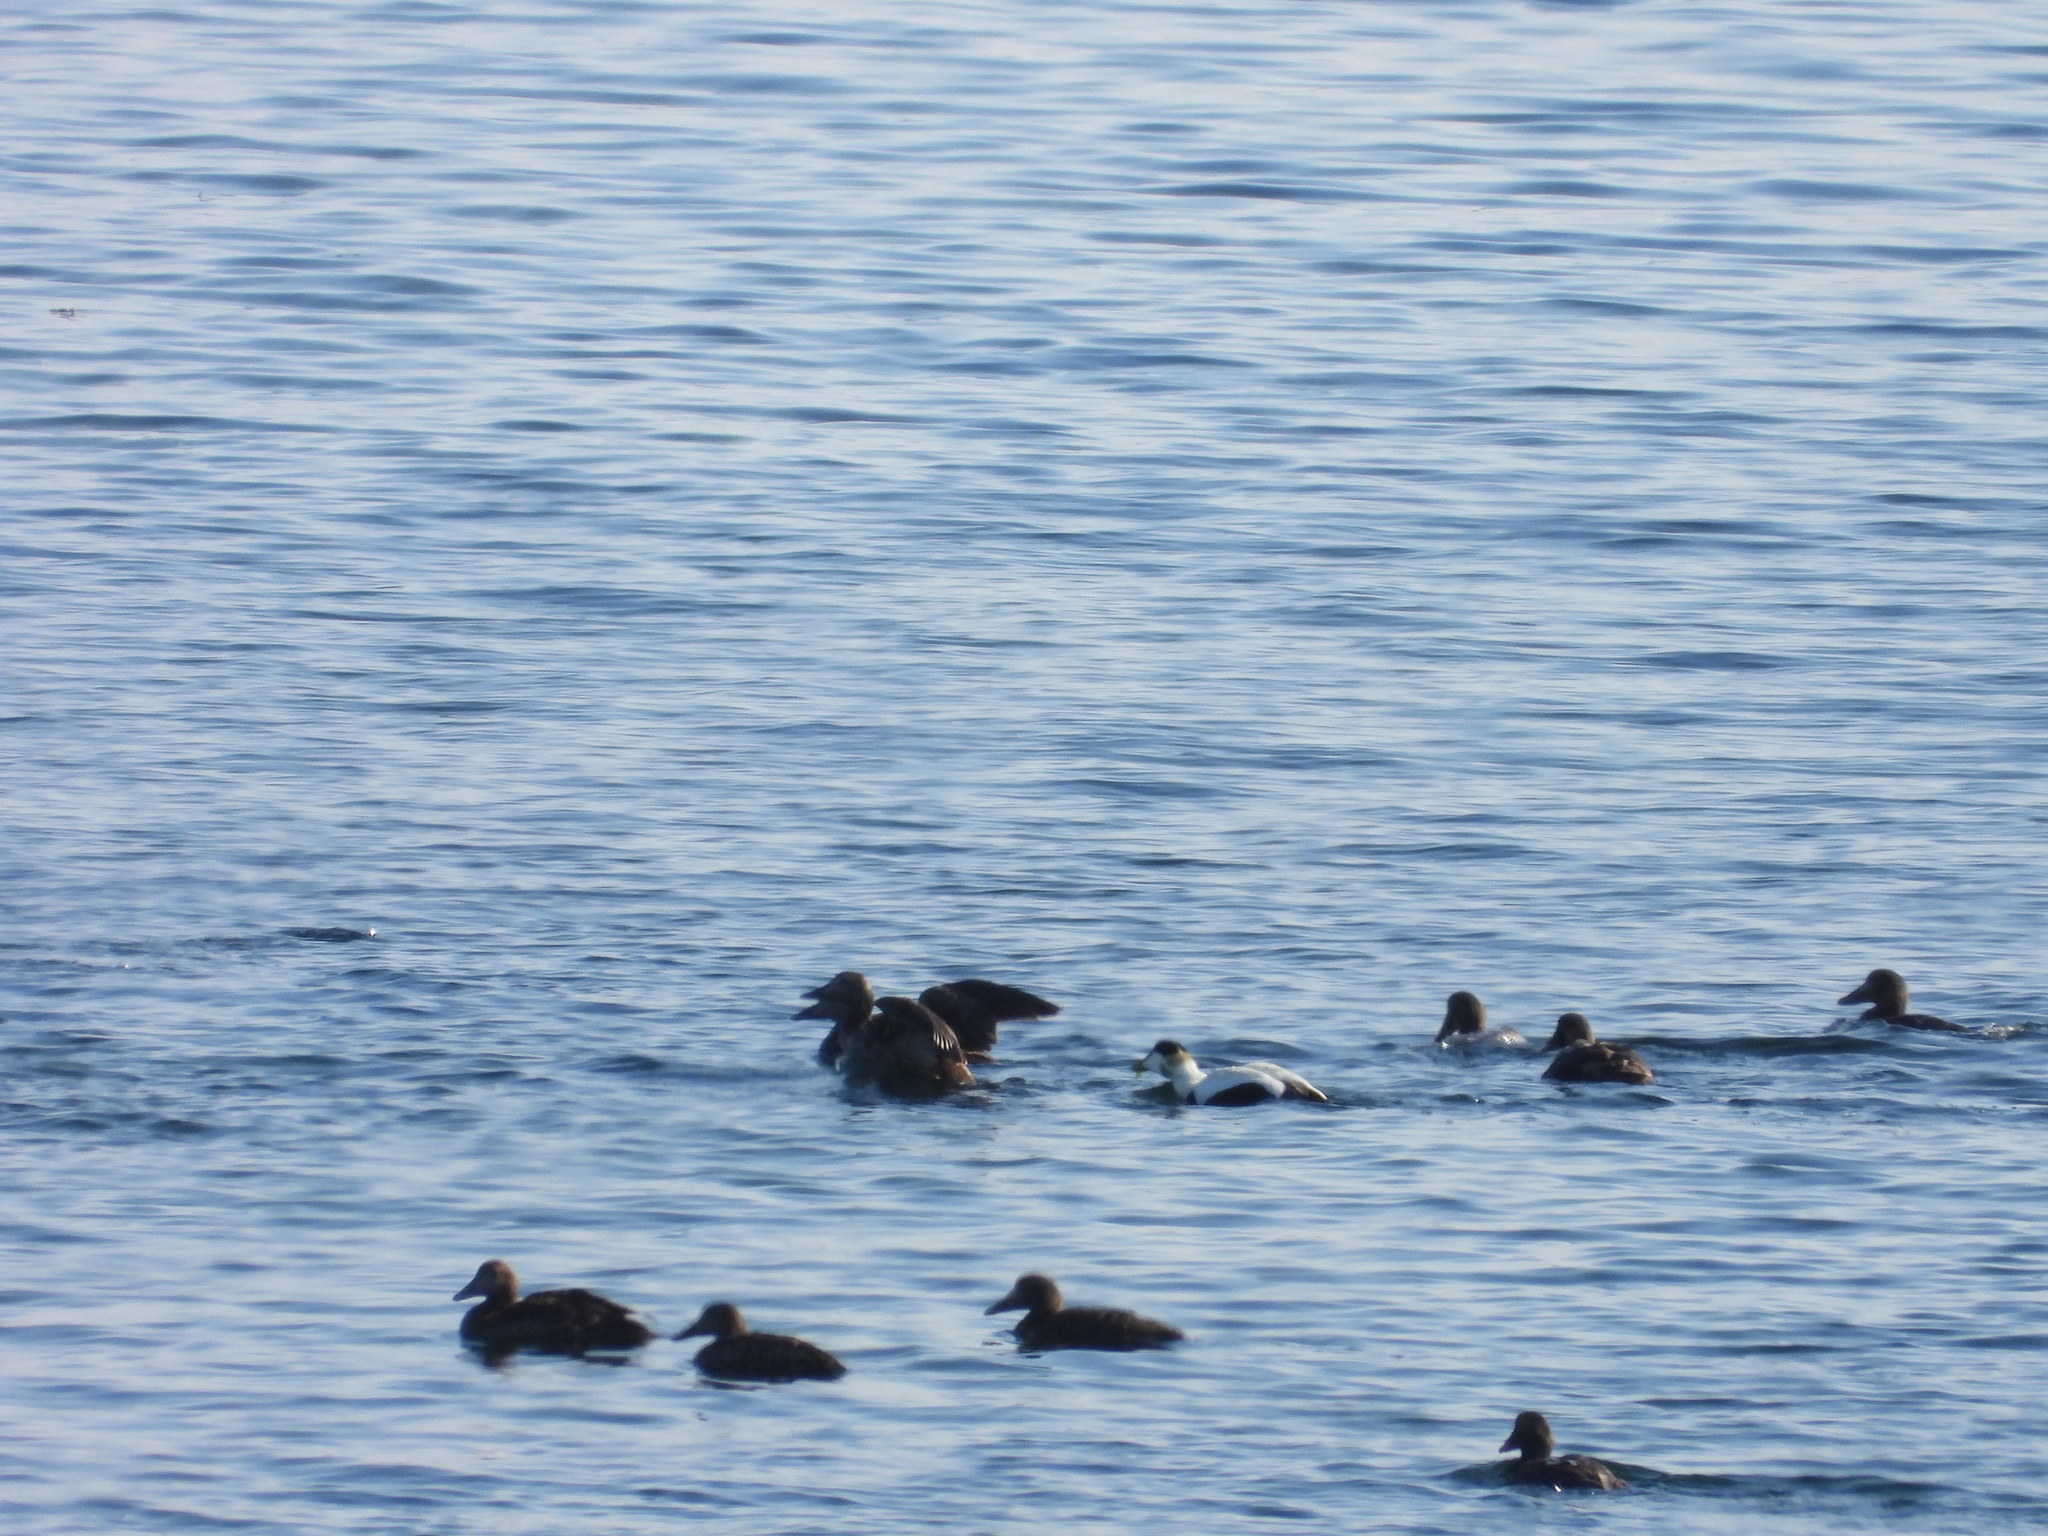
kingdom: Animalia
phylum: Chordata
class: Aves
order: Anseriformes
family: Anatidae
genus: Somateria
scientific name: Somateria mollissima
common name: Common eider
